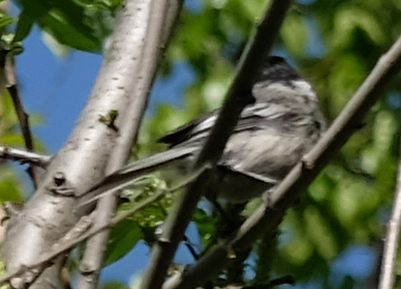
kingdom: Animalia
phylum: Chordata
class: Aves
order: Passeriformes
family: Paridae
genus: Poecile
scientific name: Poecile atricapillus
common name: Black-capped chickadee
